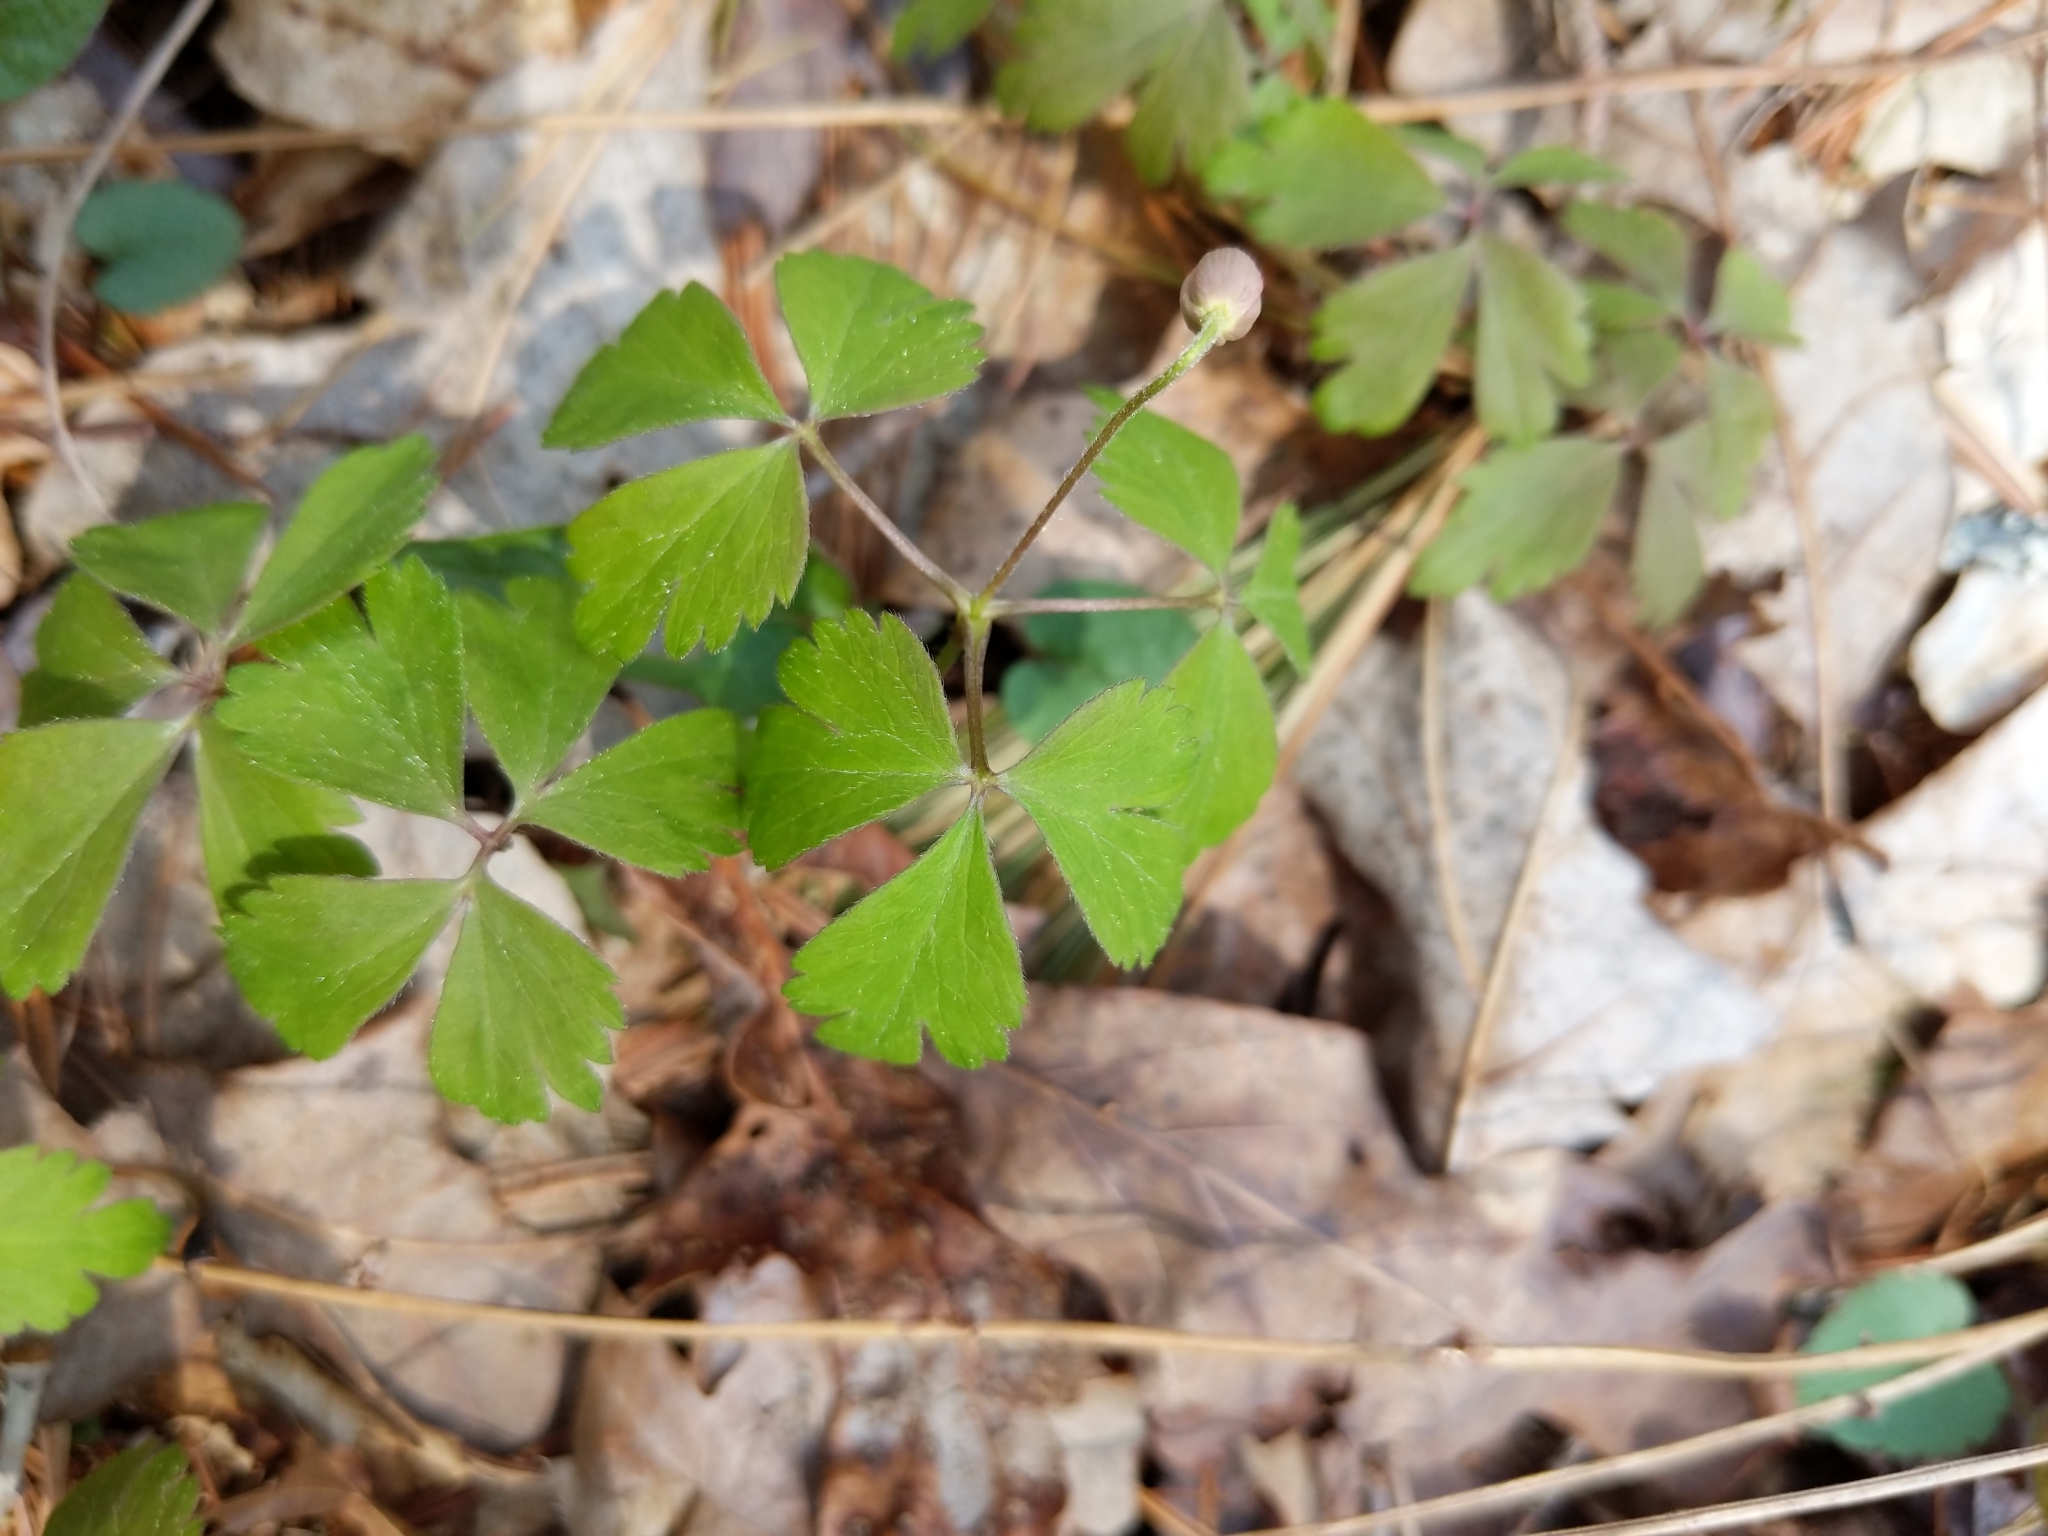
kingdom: Plantae
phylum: Tracheophyta
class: Magnoliopsida
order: Ranunculales
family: Ranunculaceae
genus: Anemone
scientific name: Anemone quinquefolia
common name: Wood anemone
